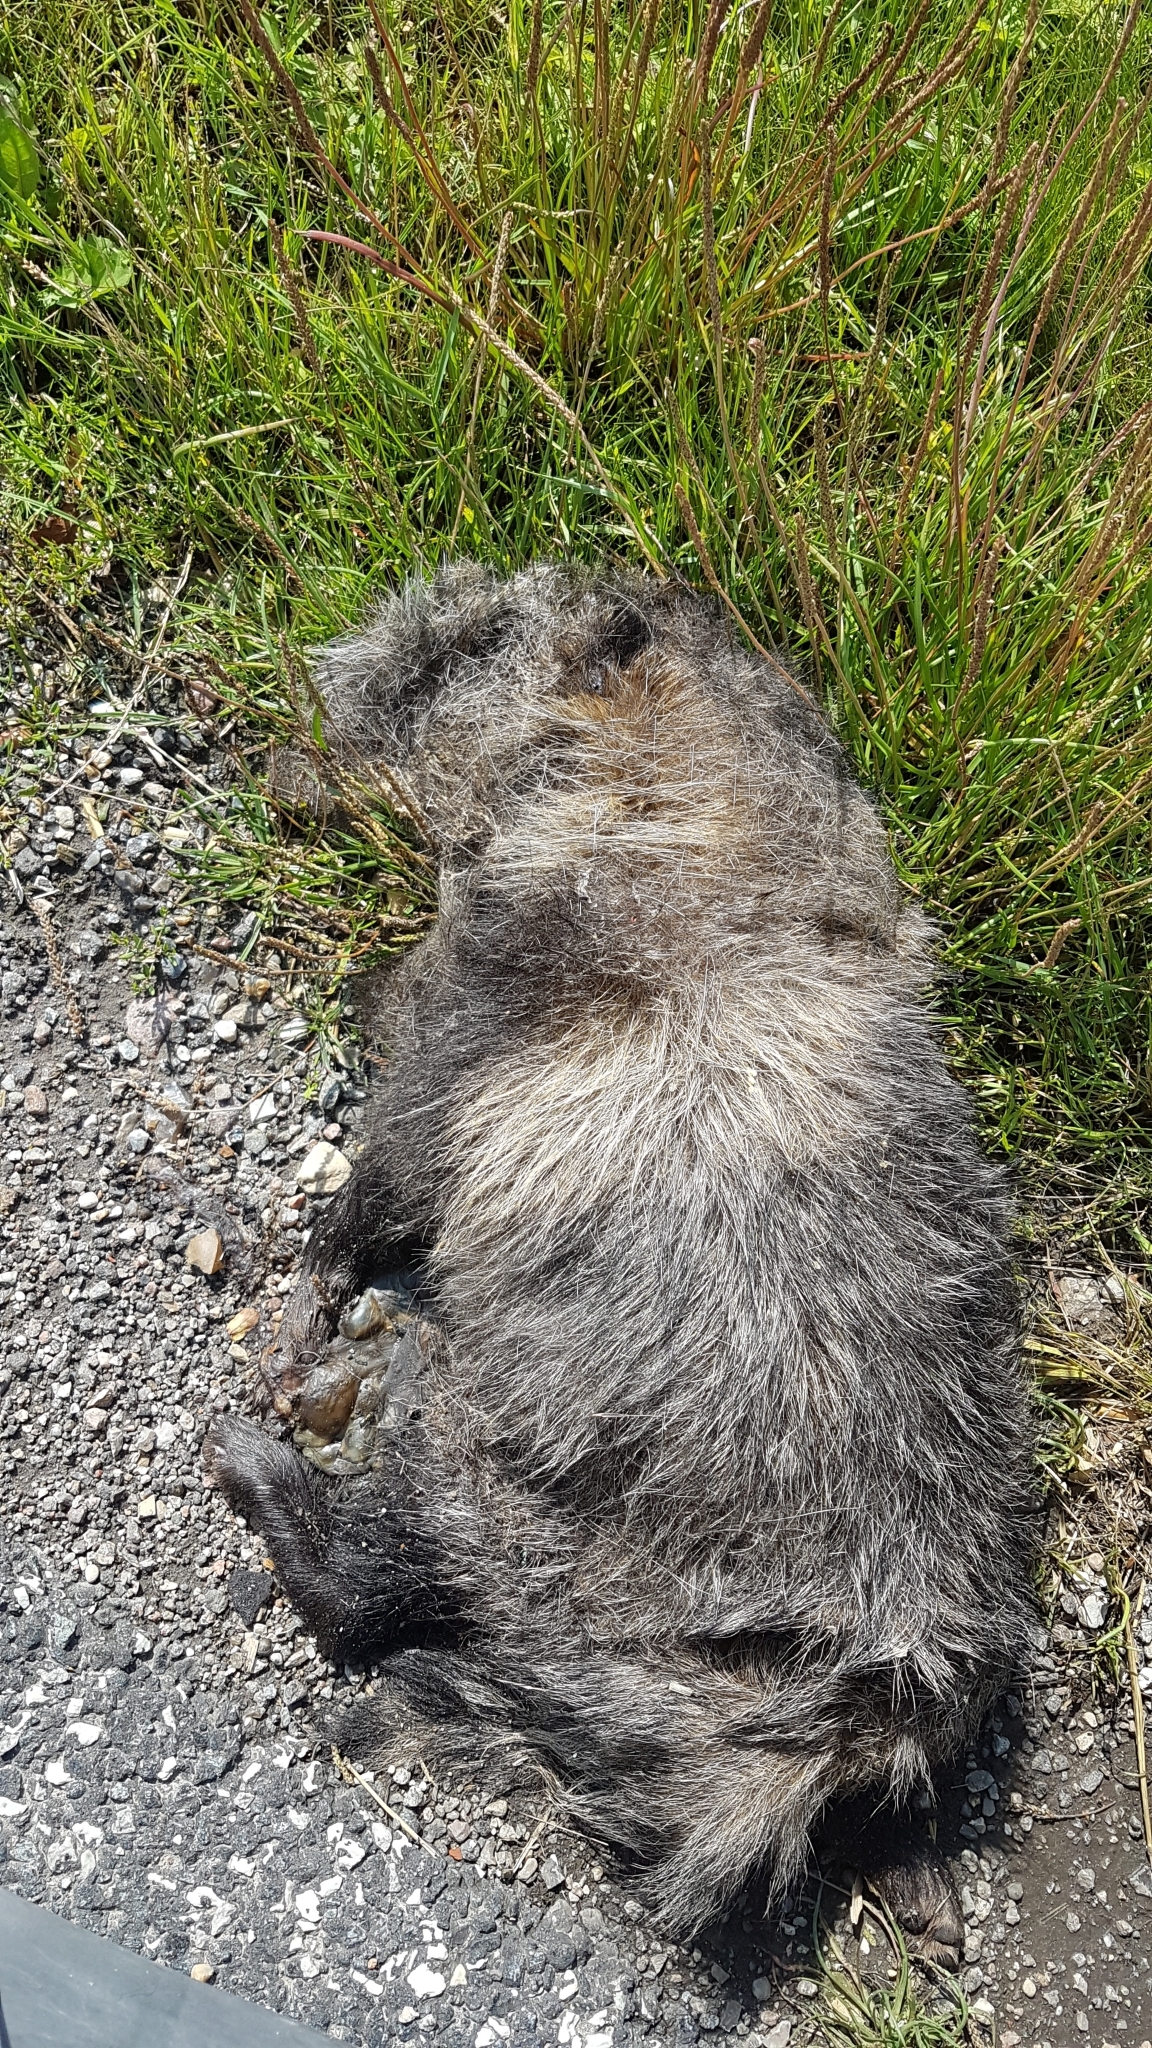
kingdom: Animalia
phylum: Chordata
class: Mammalia
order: Carnivora
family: Canidae
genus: Nyctereutes
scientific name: Nyctereutes procyonoides
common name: Raccoon dog
